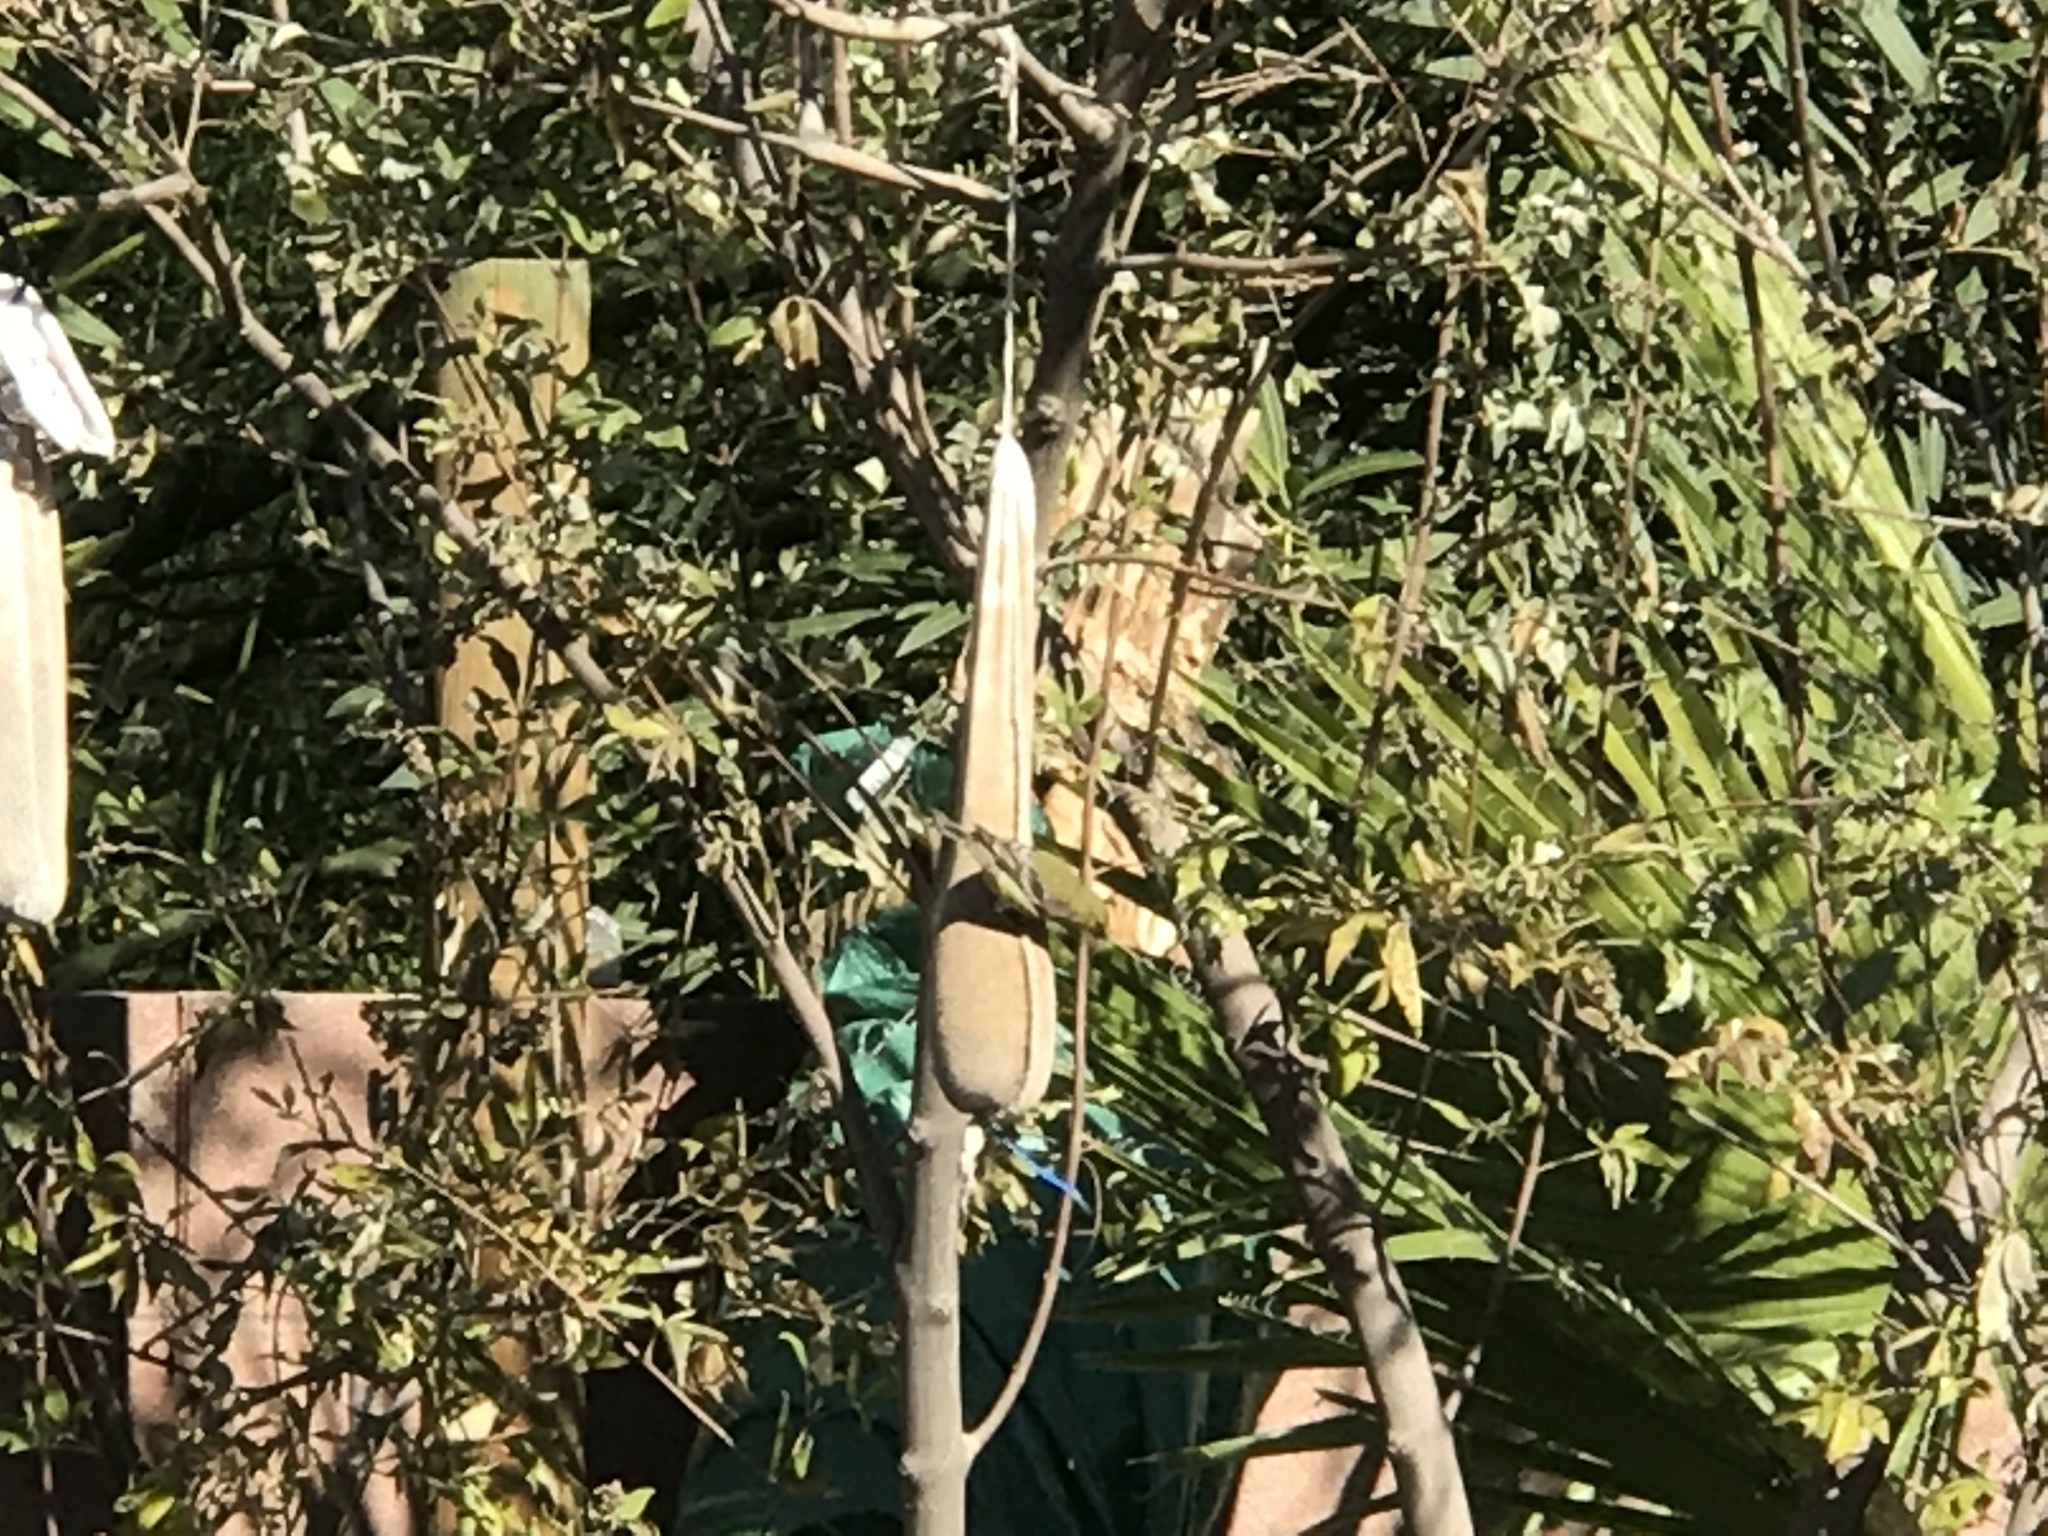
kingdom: Animalia
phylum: Chordata
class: Aves
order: Passeriformes
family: Fringillidae
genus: Spinus
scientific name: Spinus psaltria
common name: Lesser goldfinch
